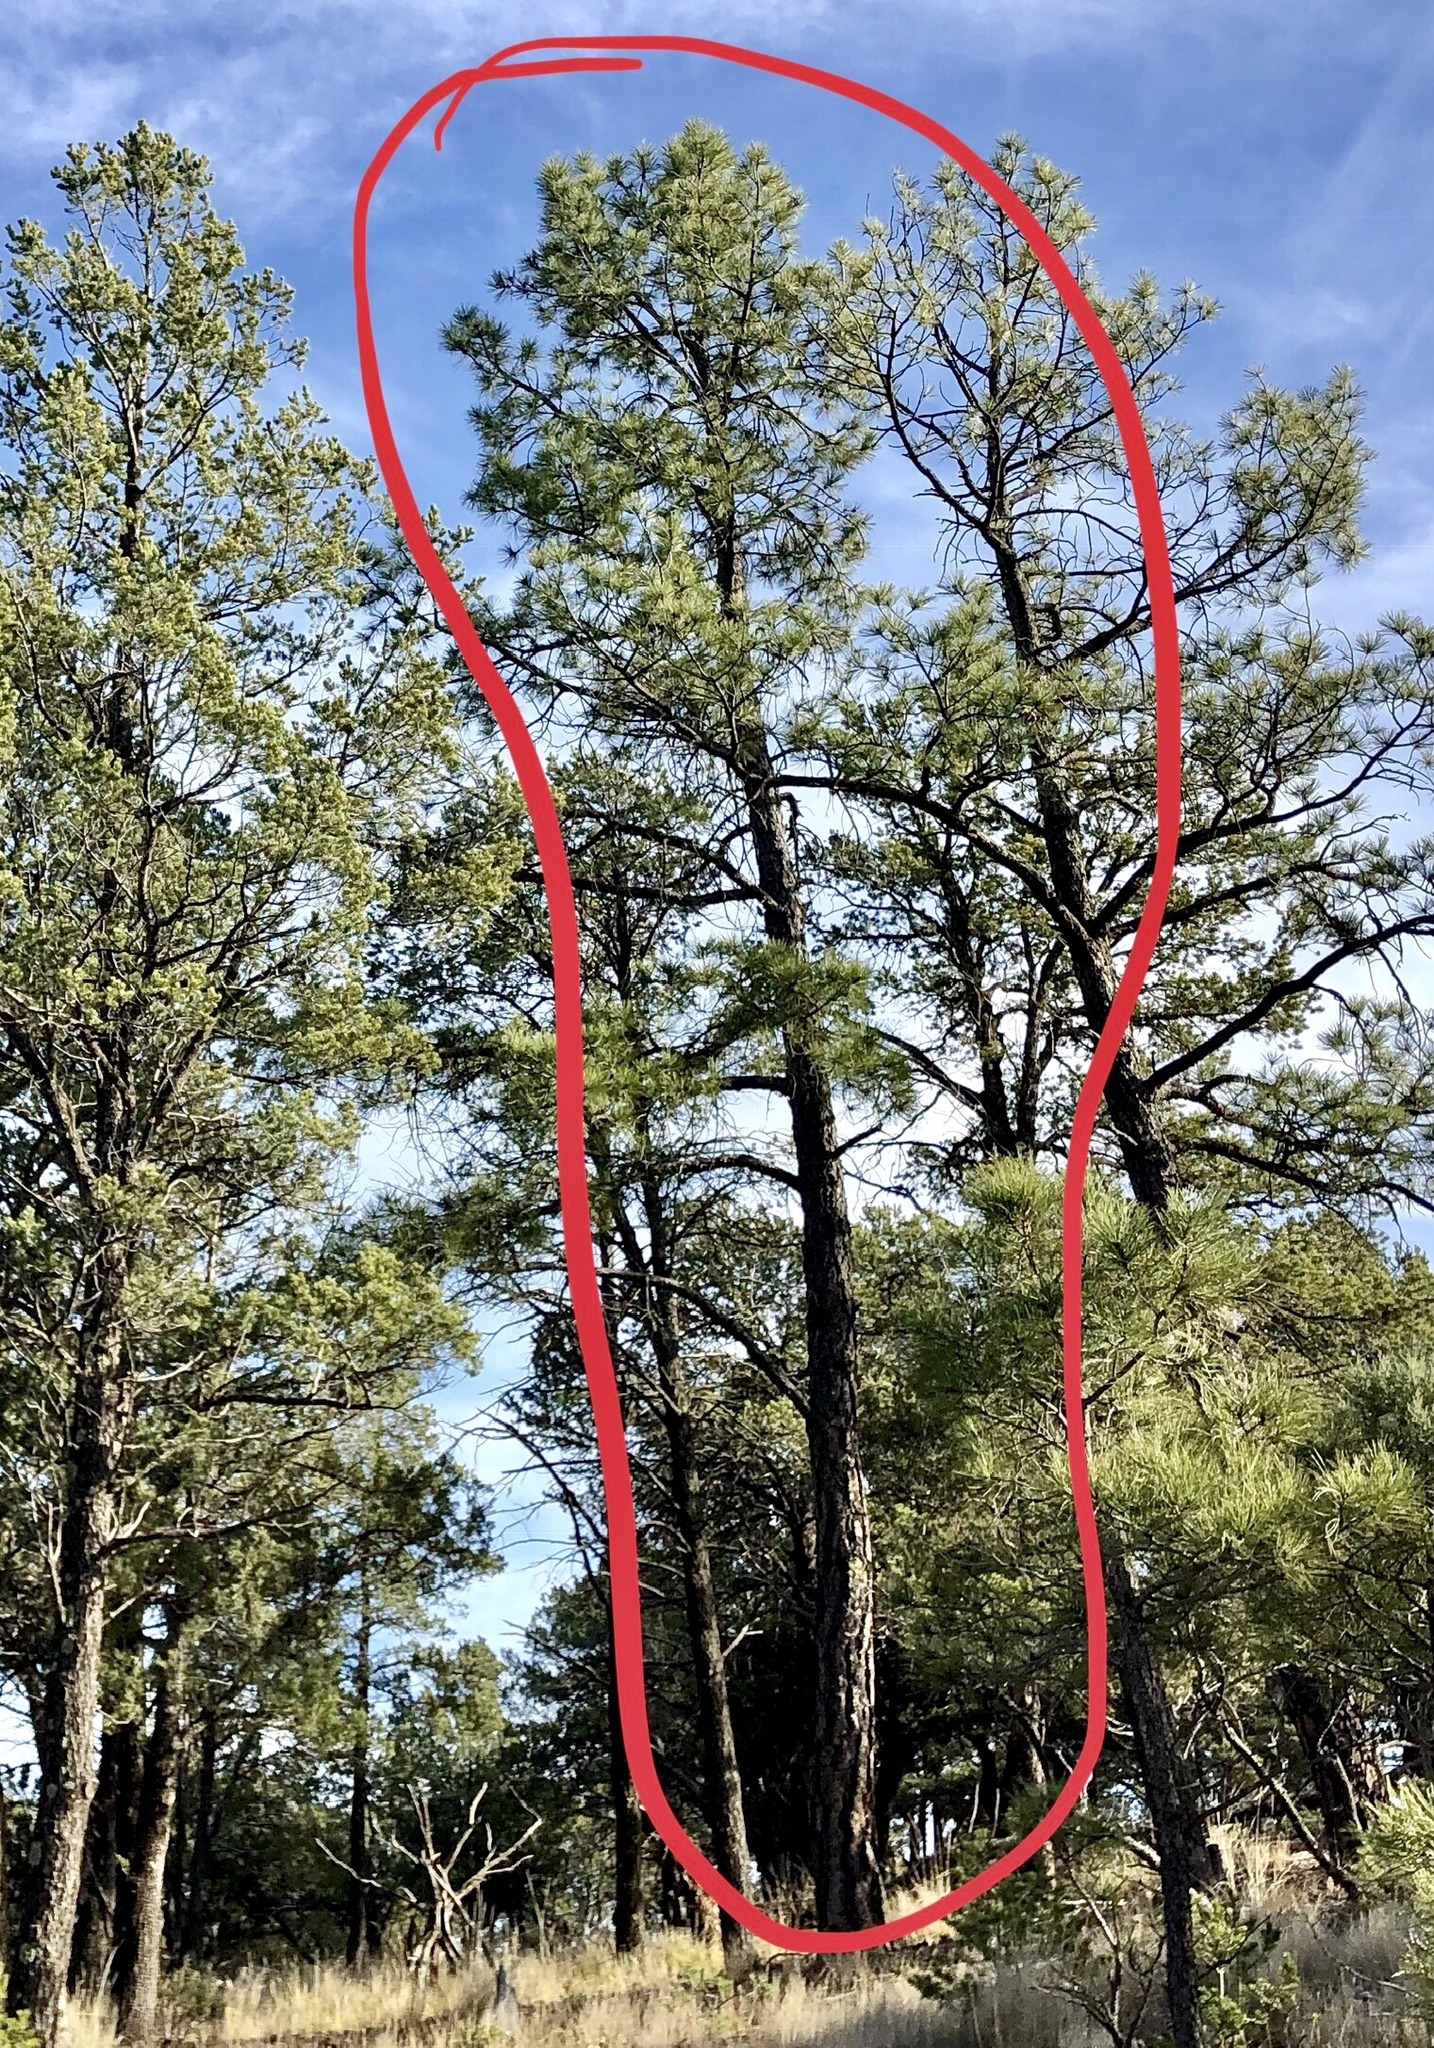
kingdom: Plantae
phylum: Tracheophyta
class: Pinopsida
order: Pinales
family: Pinaceae
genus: Pinus
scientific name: Pinus ponderosa
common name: Western yellow-pine
